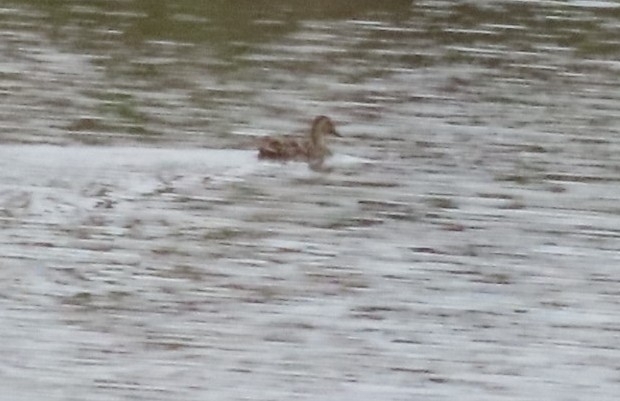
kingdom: Animalia
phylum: Chordata
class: Aves
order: Anseriformes
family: Anatidae
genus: Anas
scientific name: Anas
